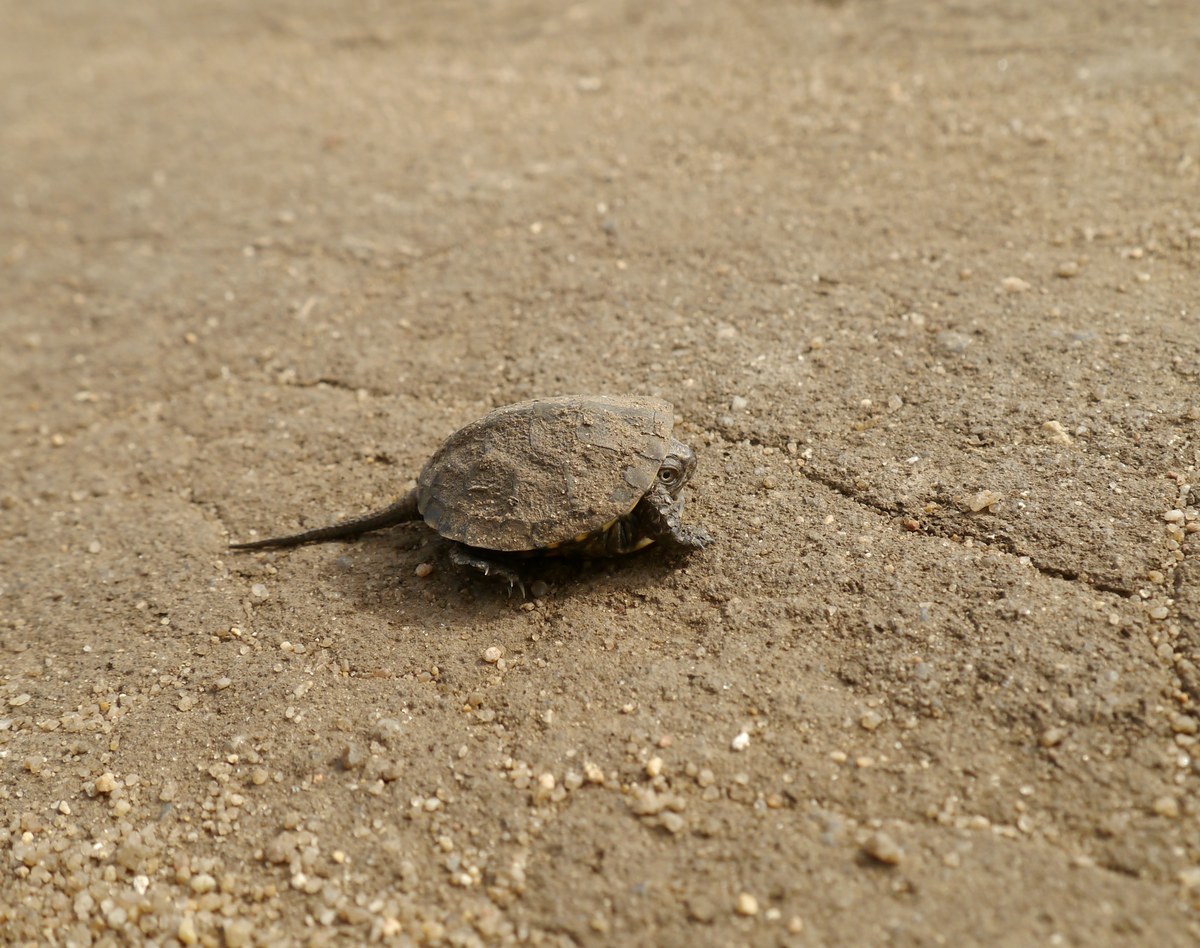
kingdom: Animalia
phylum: Chordata
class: Testudines
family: Emydidae
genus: Emys
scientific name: Emys orbicularis
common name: European pond turtle
